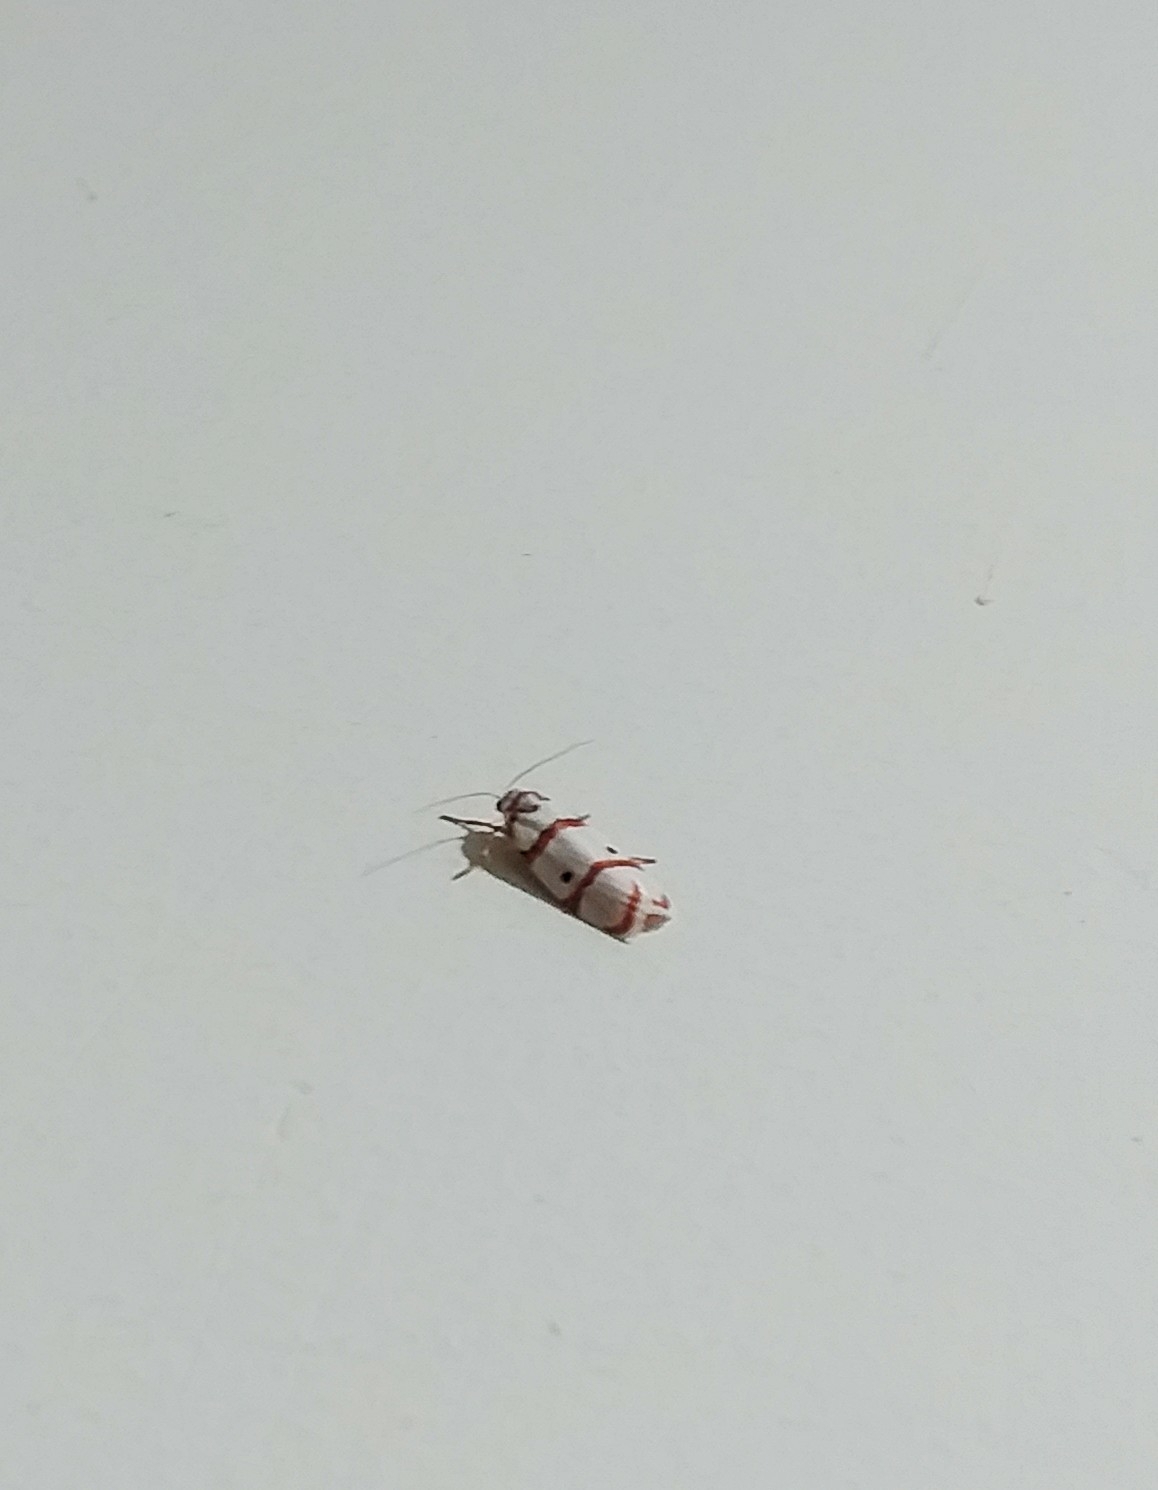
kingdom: Animalia
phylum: Arthropoda
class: Insecta
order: Lepidoptera
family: Erebidae
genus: Cyana
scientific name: Cyana peregrina
